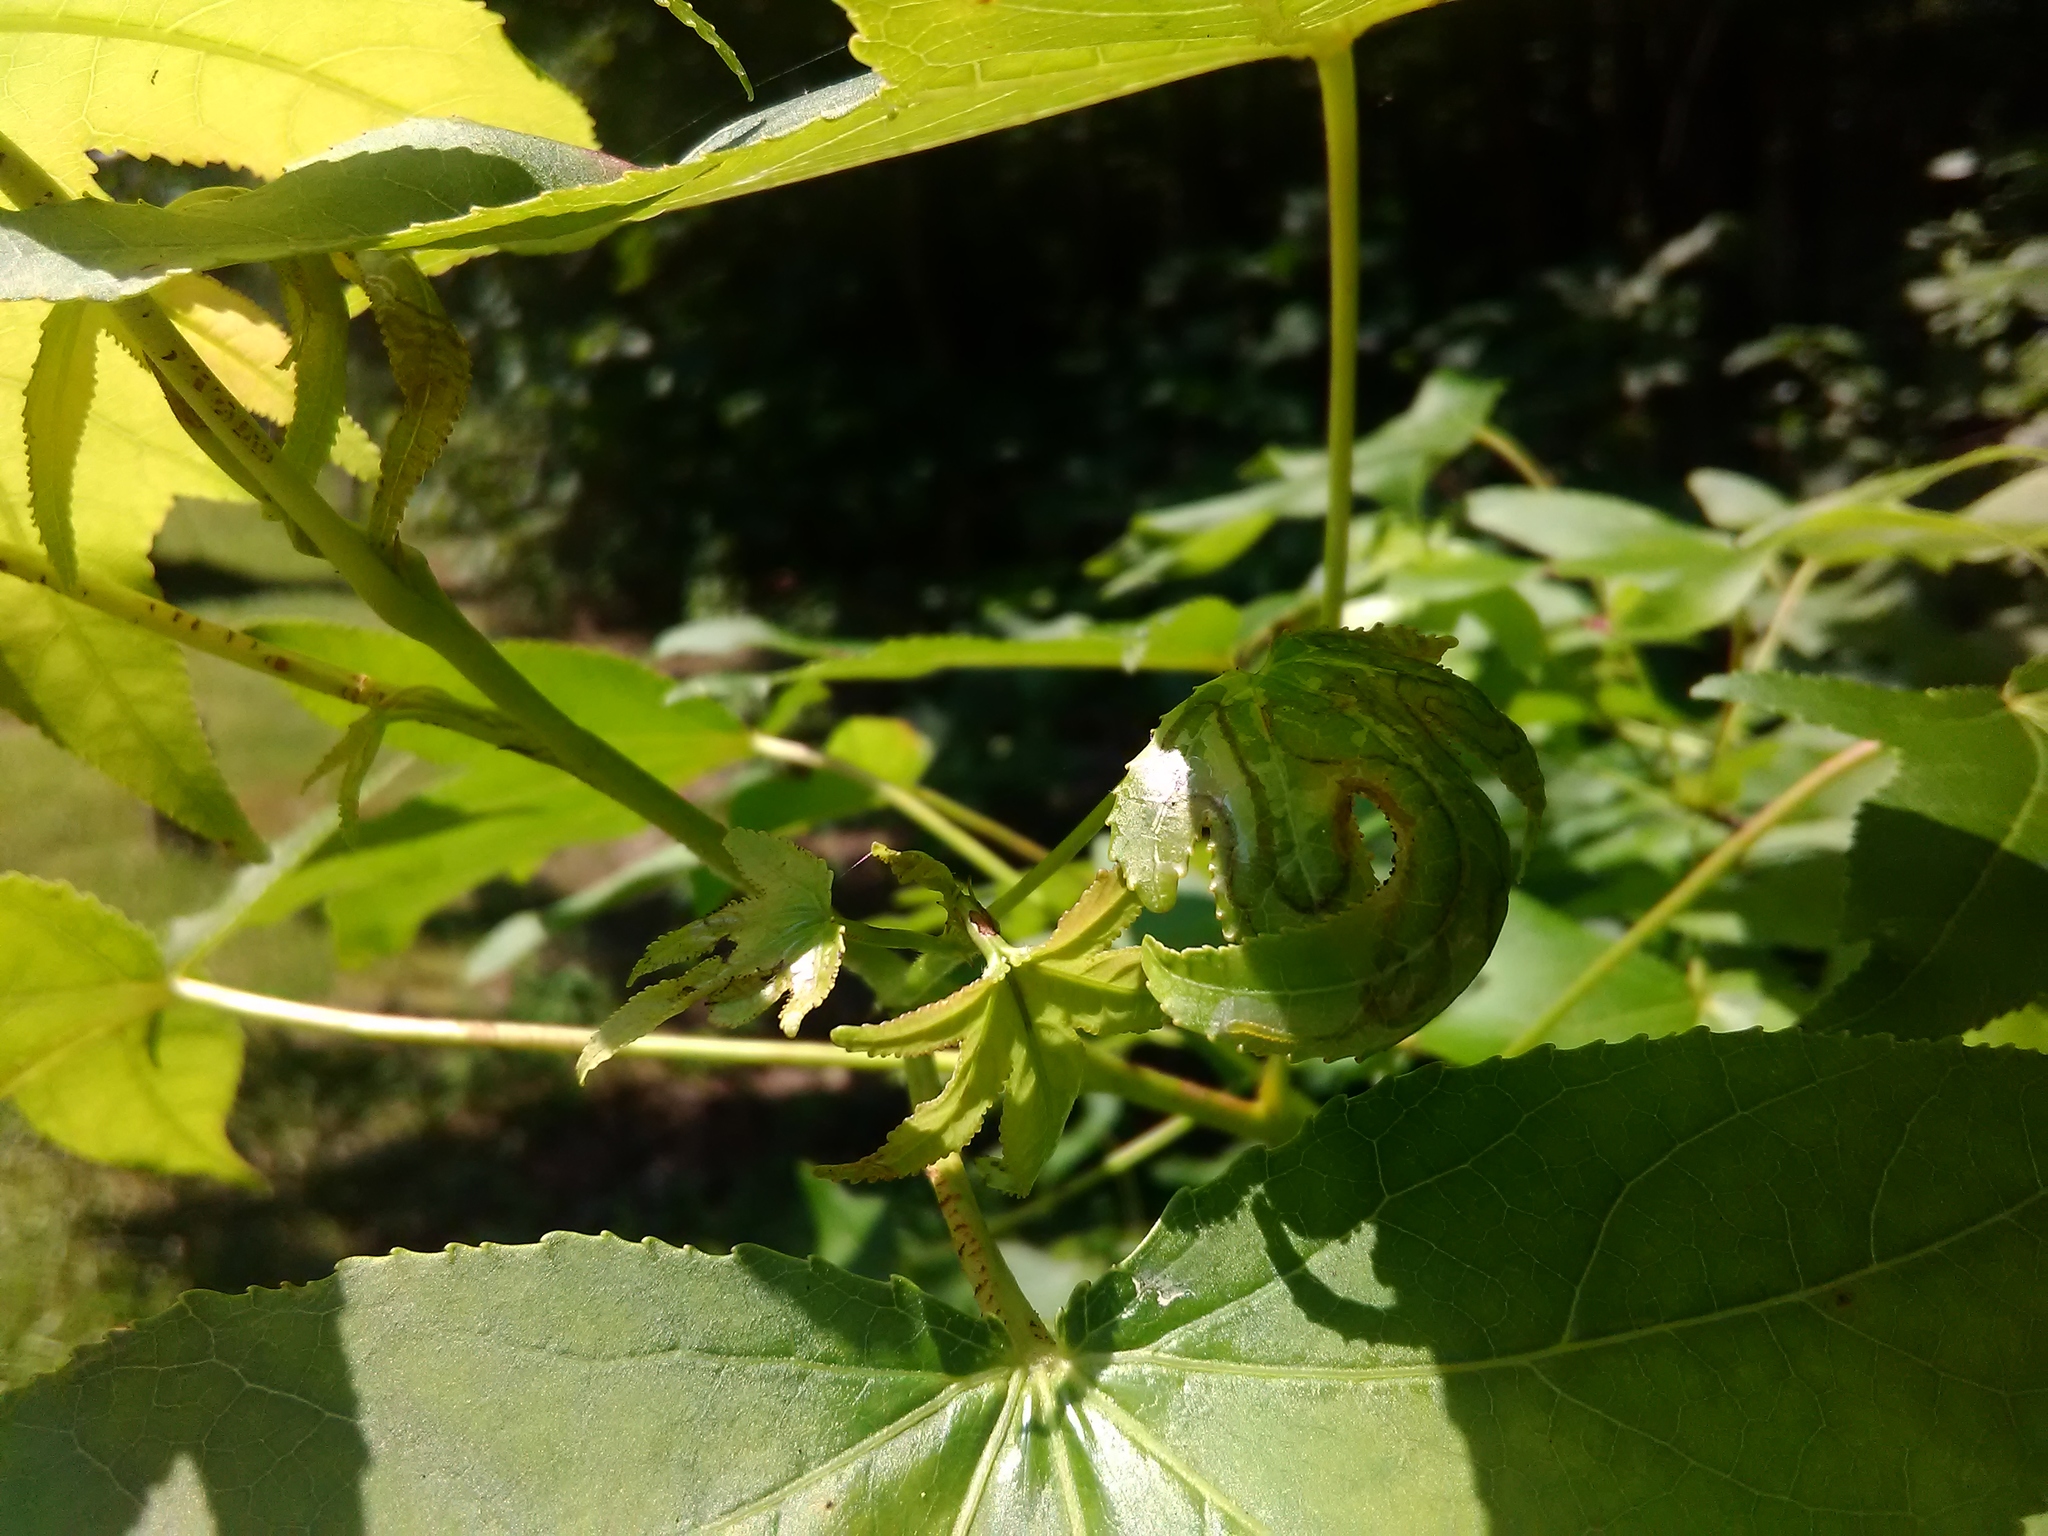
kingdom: Animalia
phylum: Arthropoda
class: Insecta
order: Lepidoptera
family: Gracillariidae
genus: Phyllocnistis
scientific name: Phyllocnistis liquidambarisella
